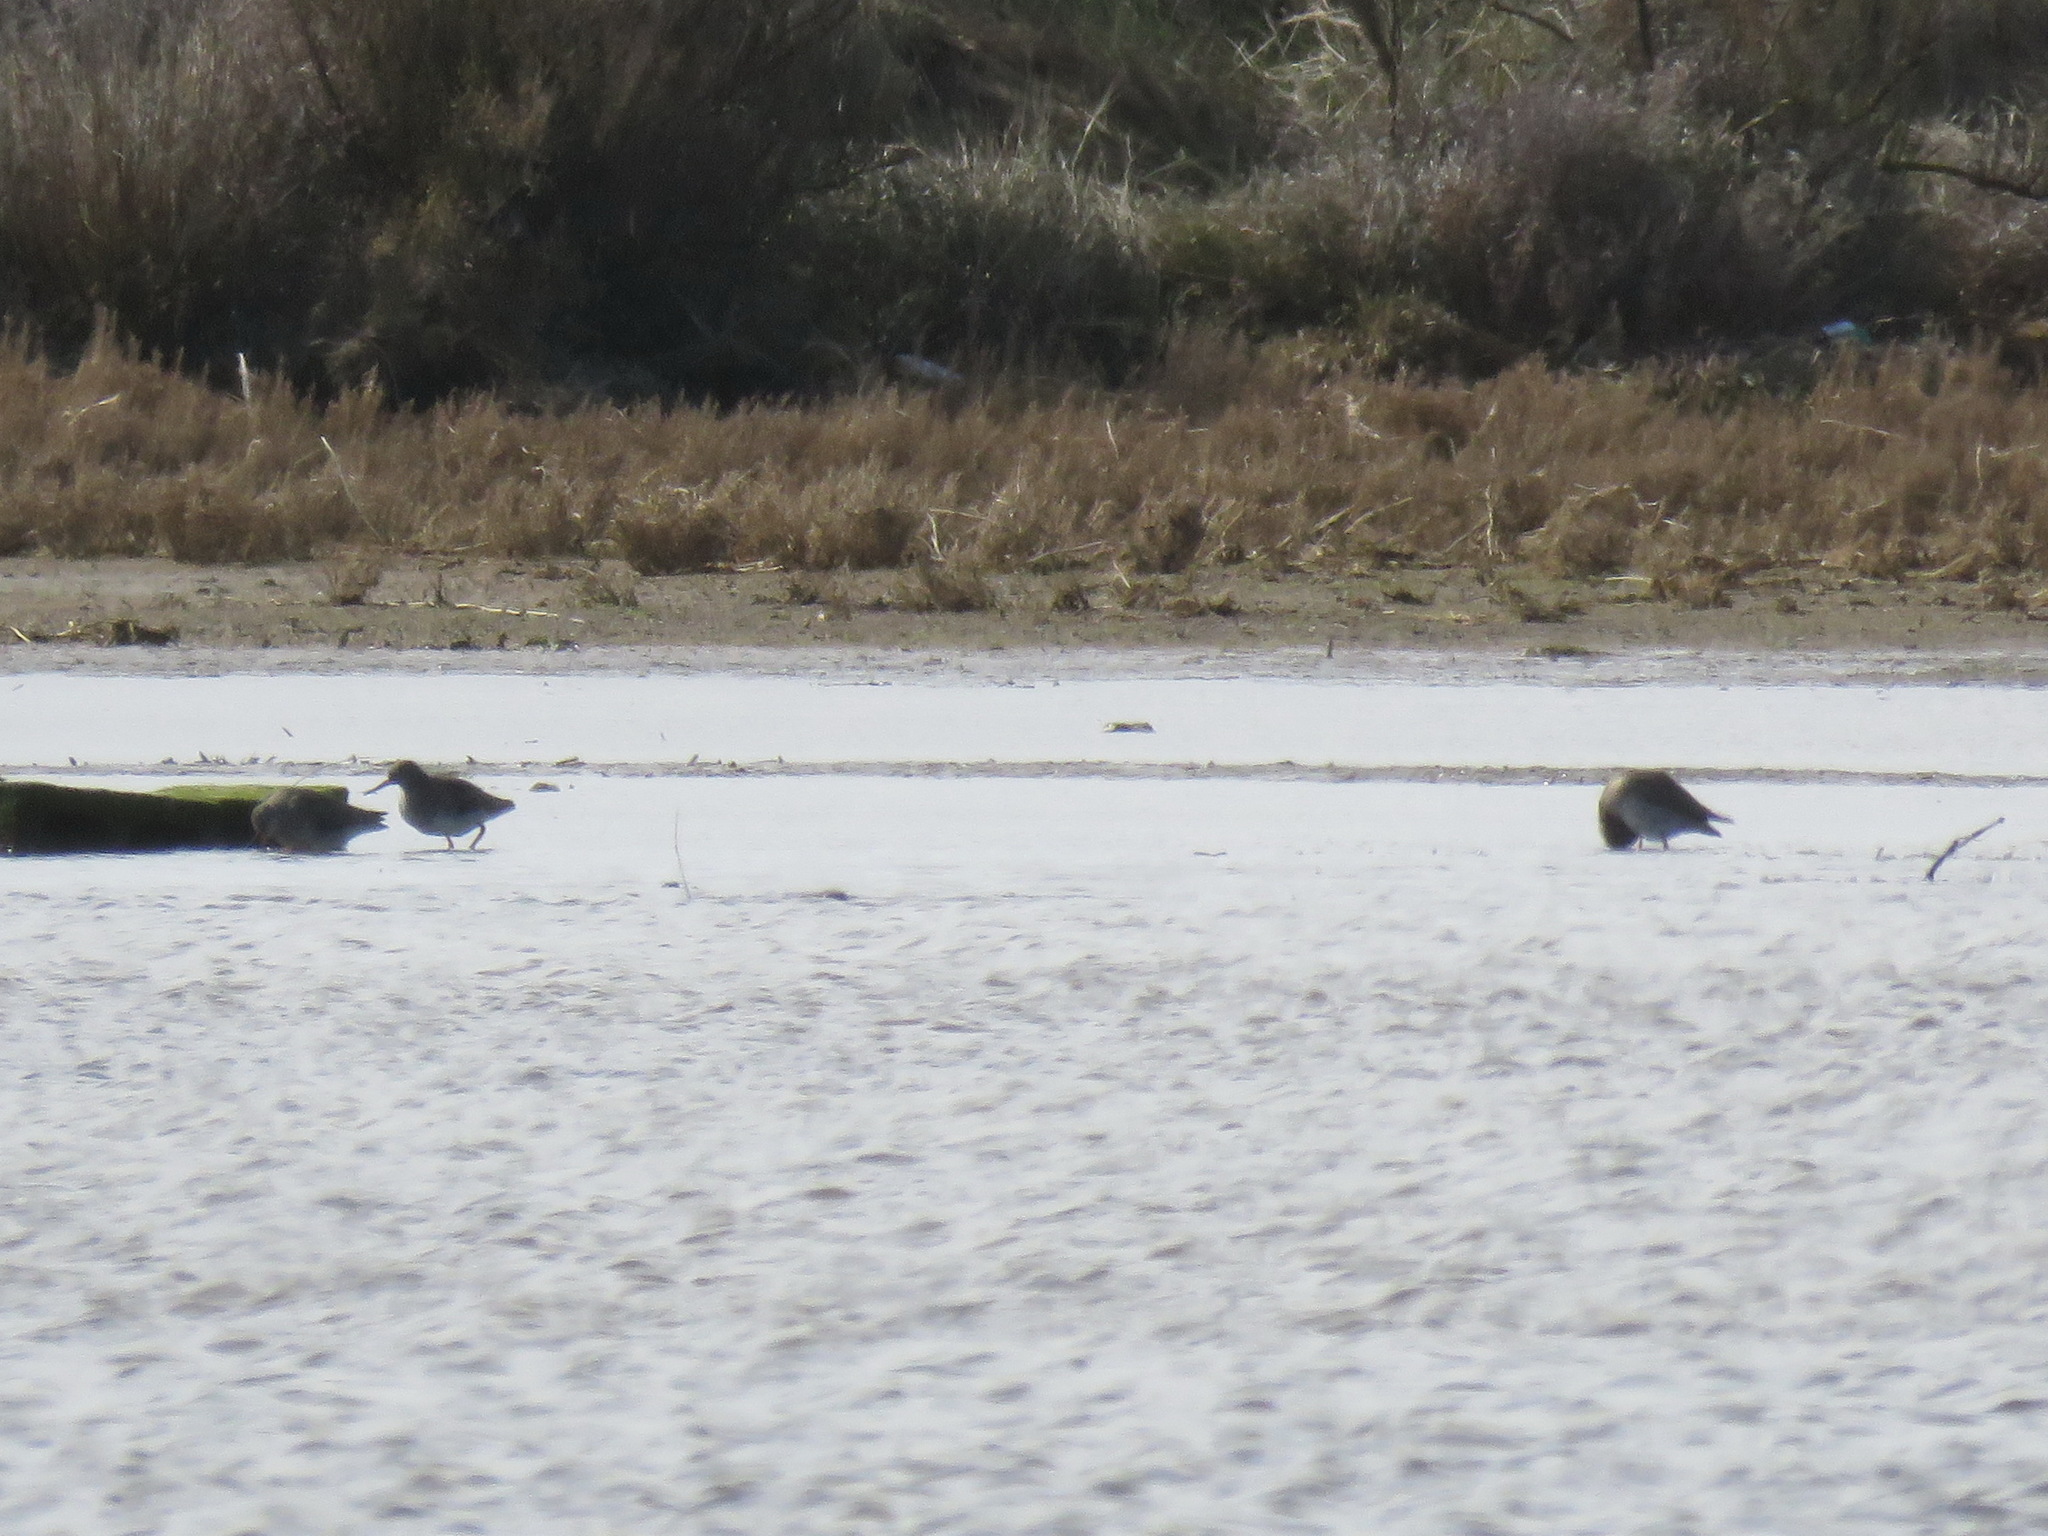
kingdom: Animalia
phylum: Chordata
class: Aves
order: Charadriiformes
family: Scolopacidae
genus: Tringa
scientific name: Tringa totanus
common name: Common redshank
